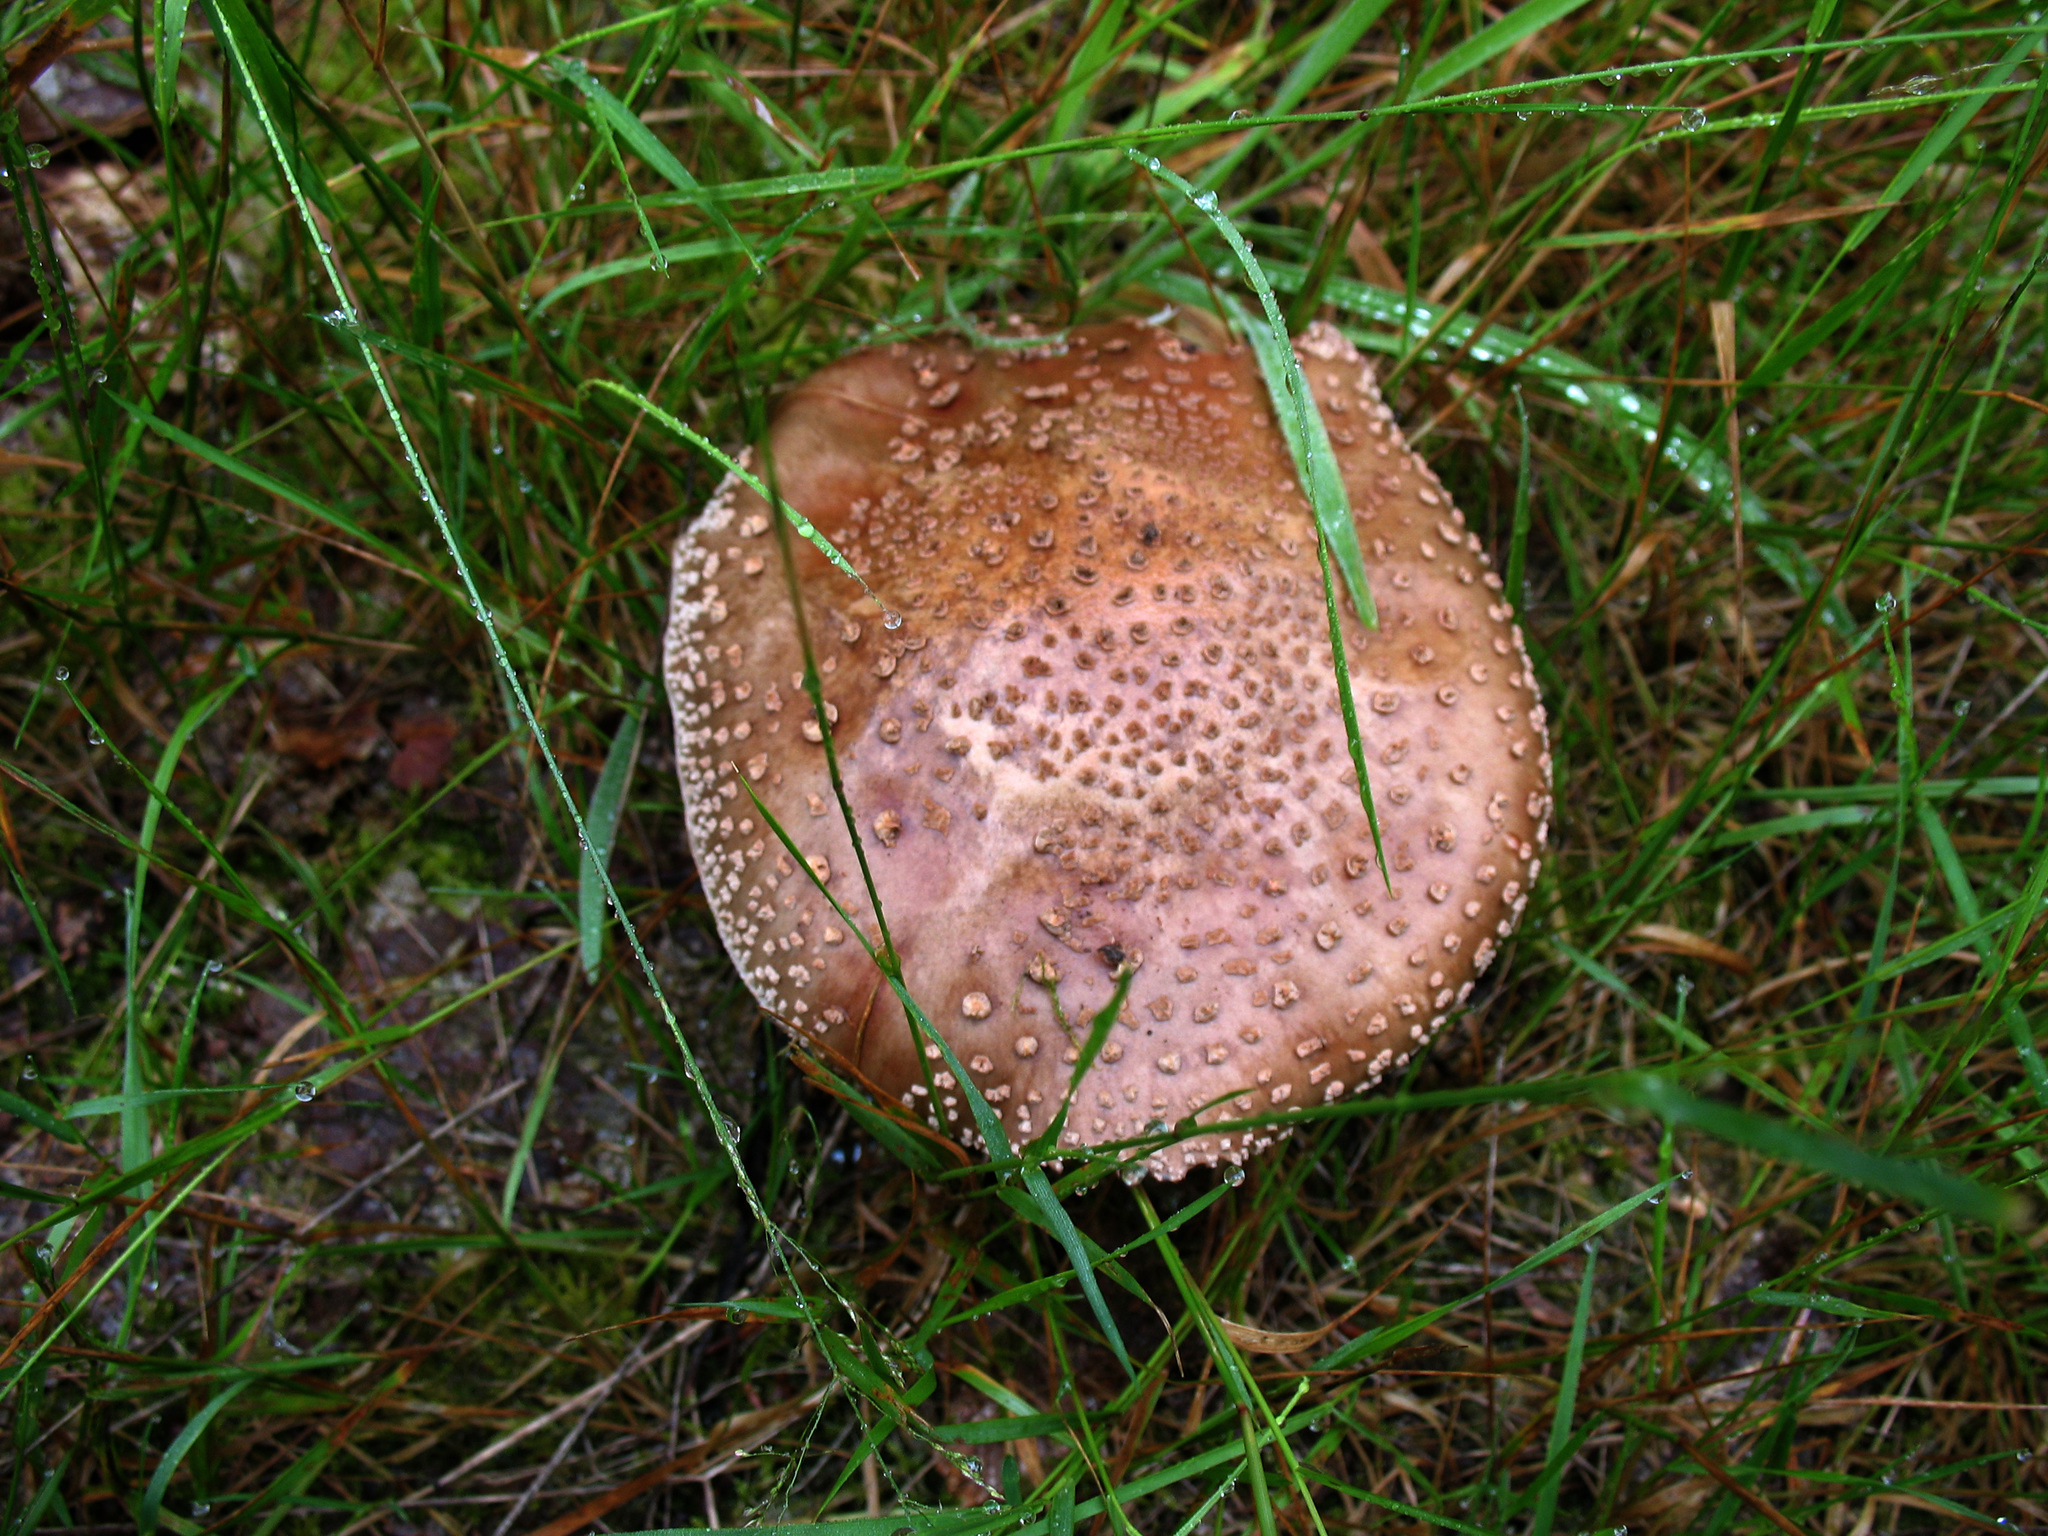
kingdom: Fungi
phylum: Basidiomycota
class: Agaricomycetes
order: Agaricales
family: Amanitaceae
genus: Amanita
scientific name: Amanita rubescens
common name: Blusher
